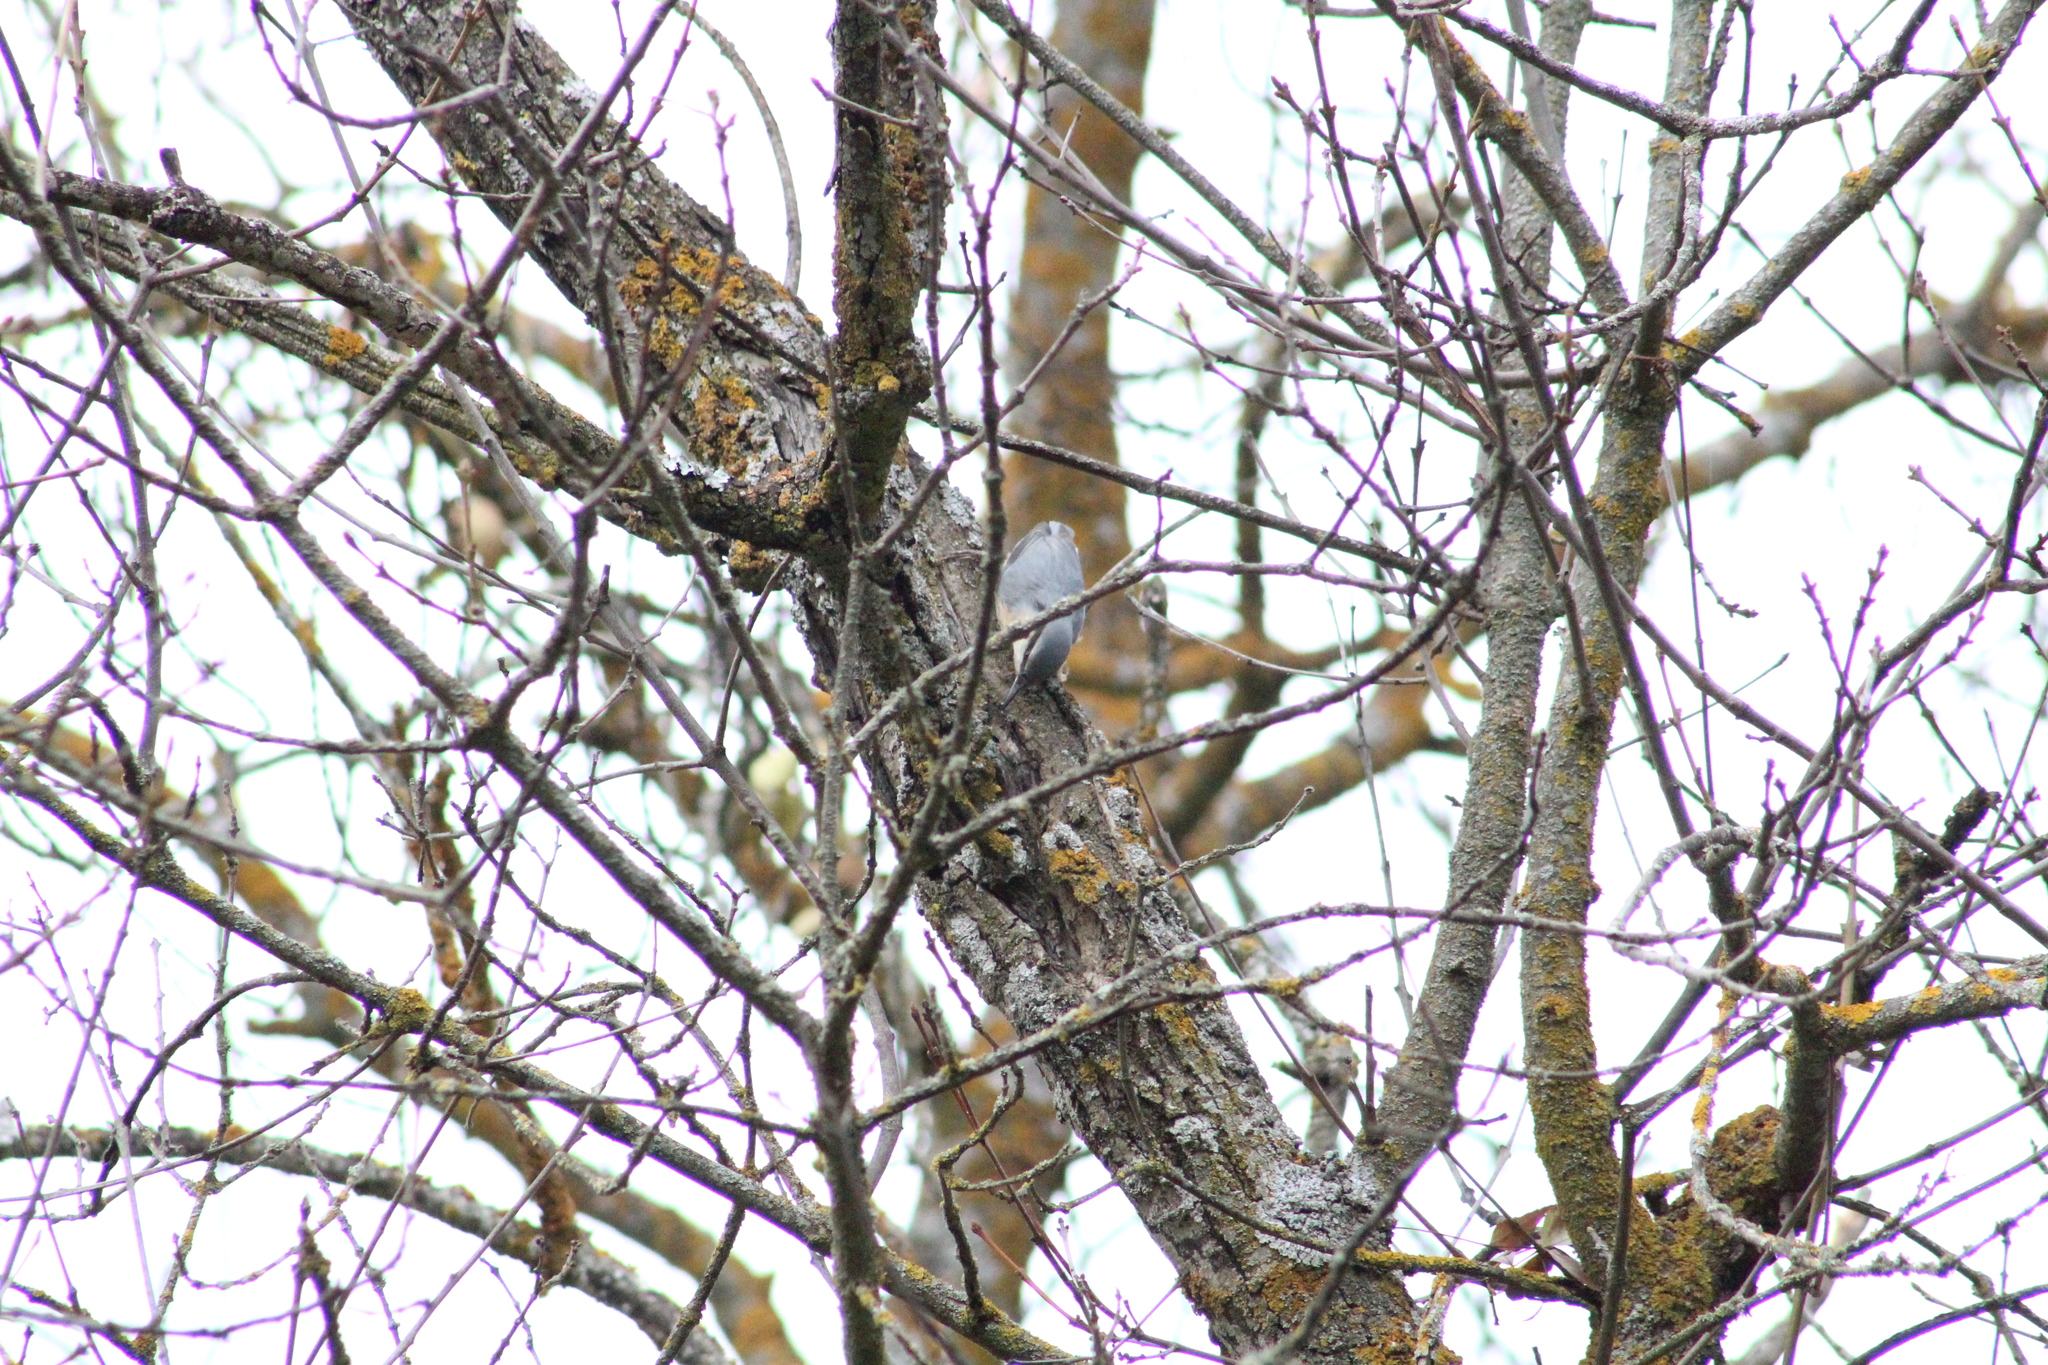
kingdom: Animalia
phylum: Chordata
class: Aves
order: Passeriformes
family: Sittidae
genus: Sitta
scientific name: Sitta europaea
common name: Eurasian nuthatch
